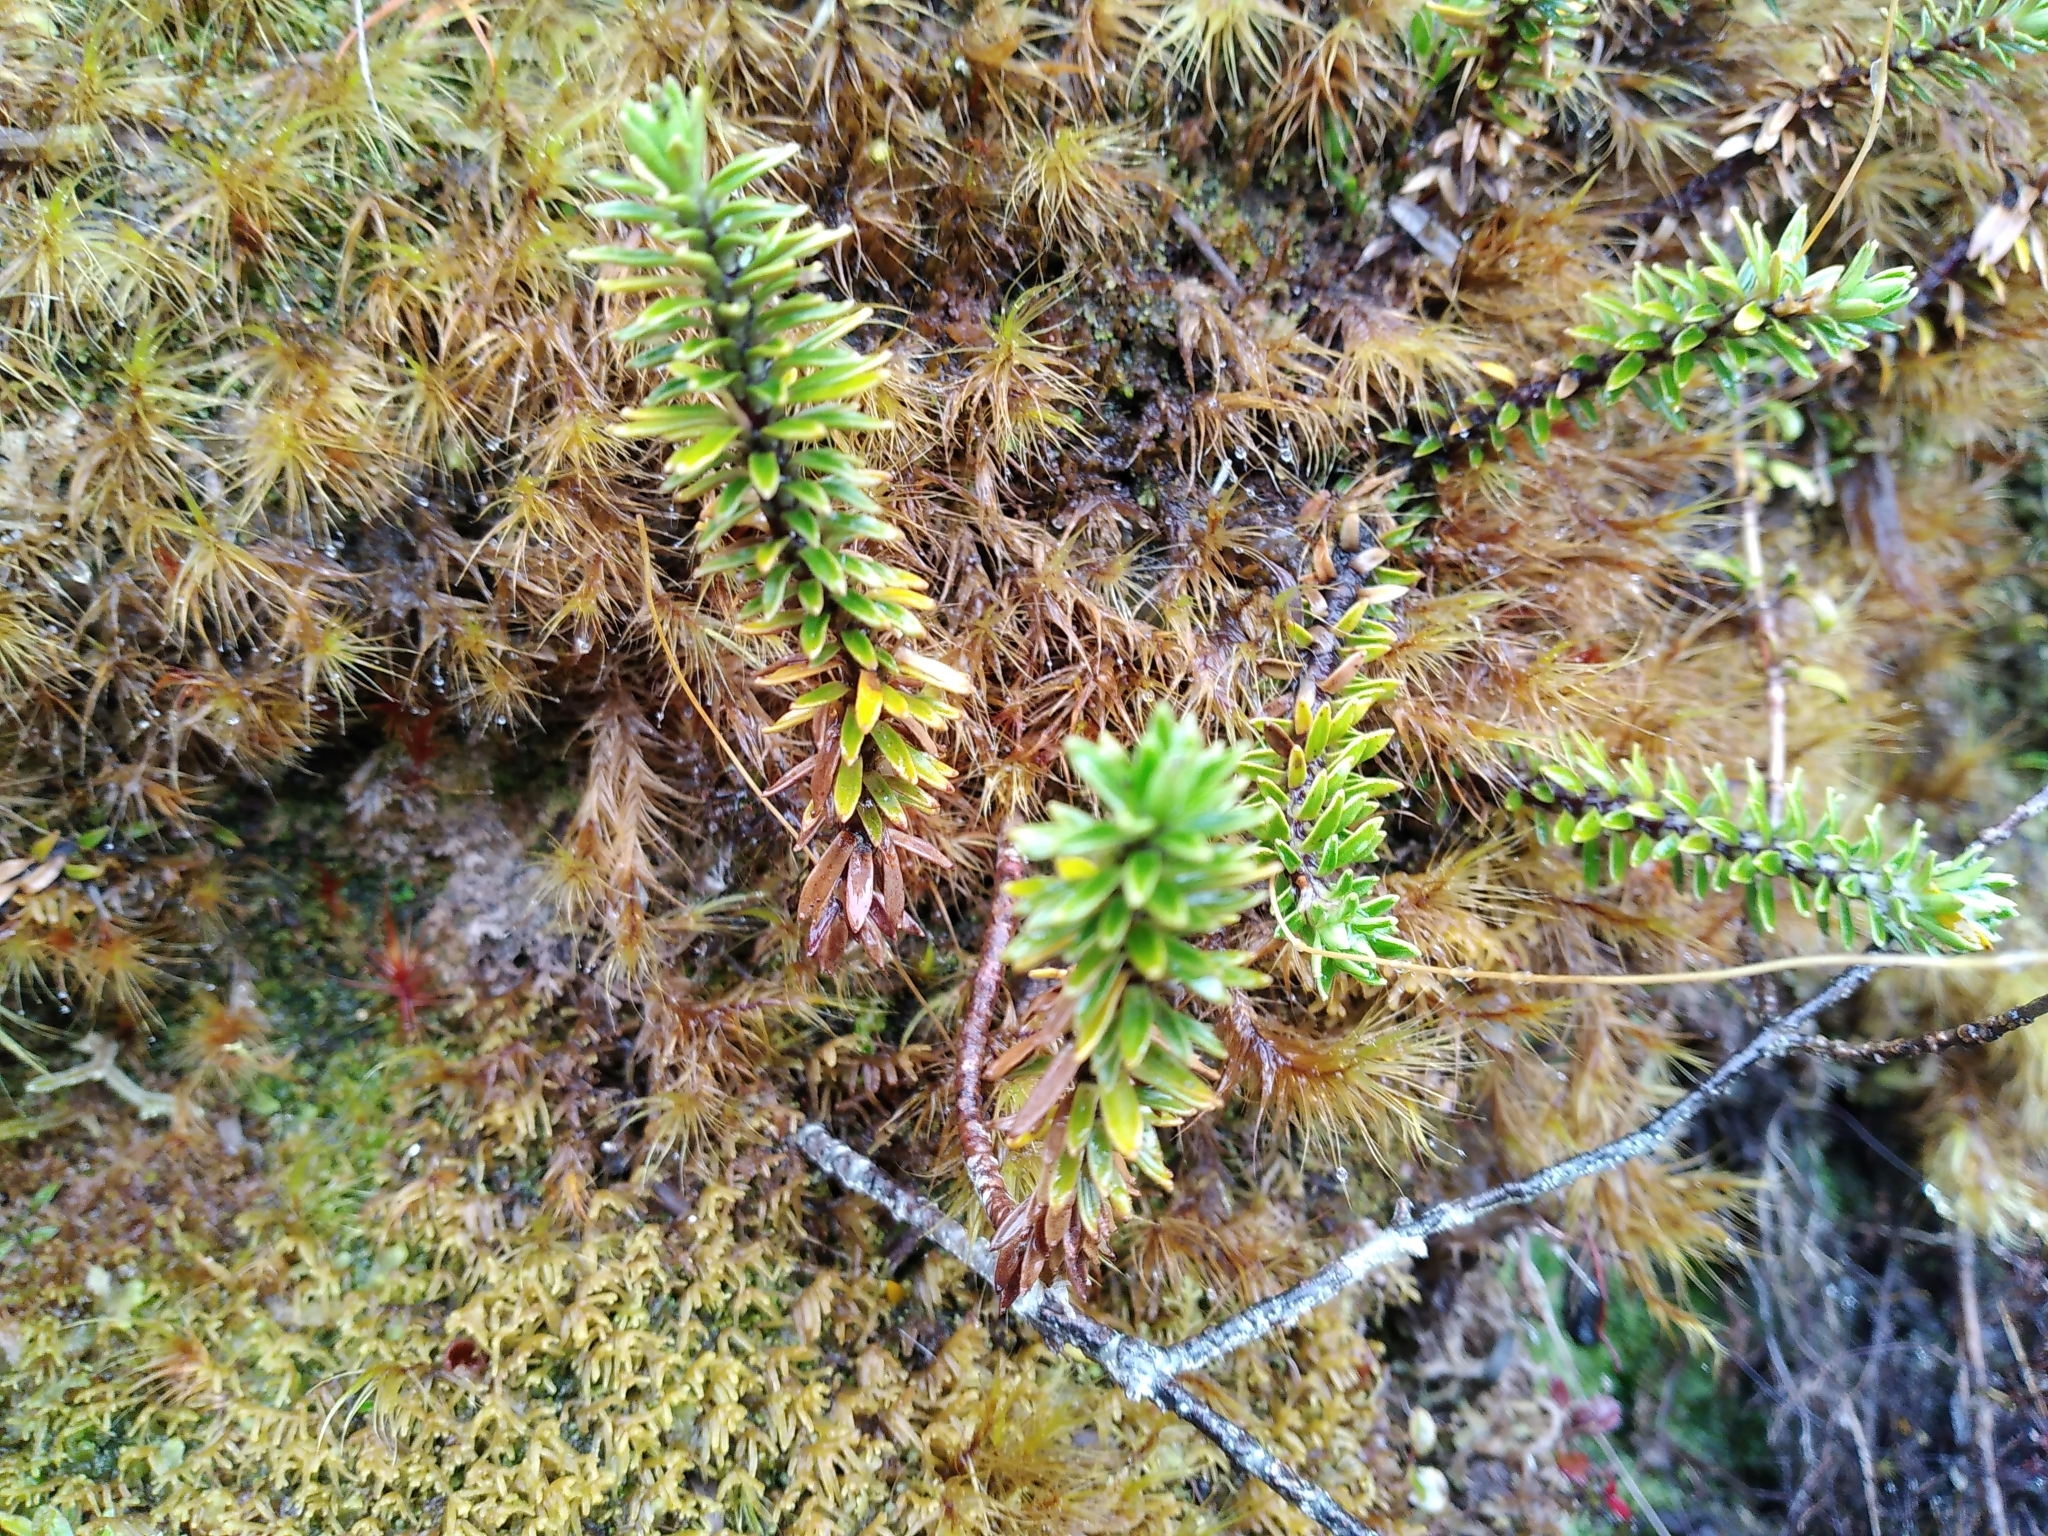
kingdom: Plantae
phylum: Tracheophyta
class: Magnoliopsida
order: Asterales
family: Stylidiaceae
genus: Forstera
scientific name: Forstera mackayi
